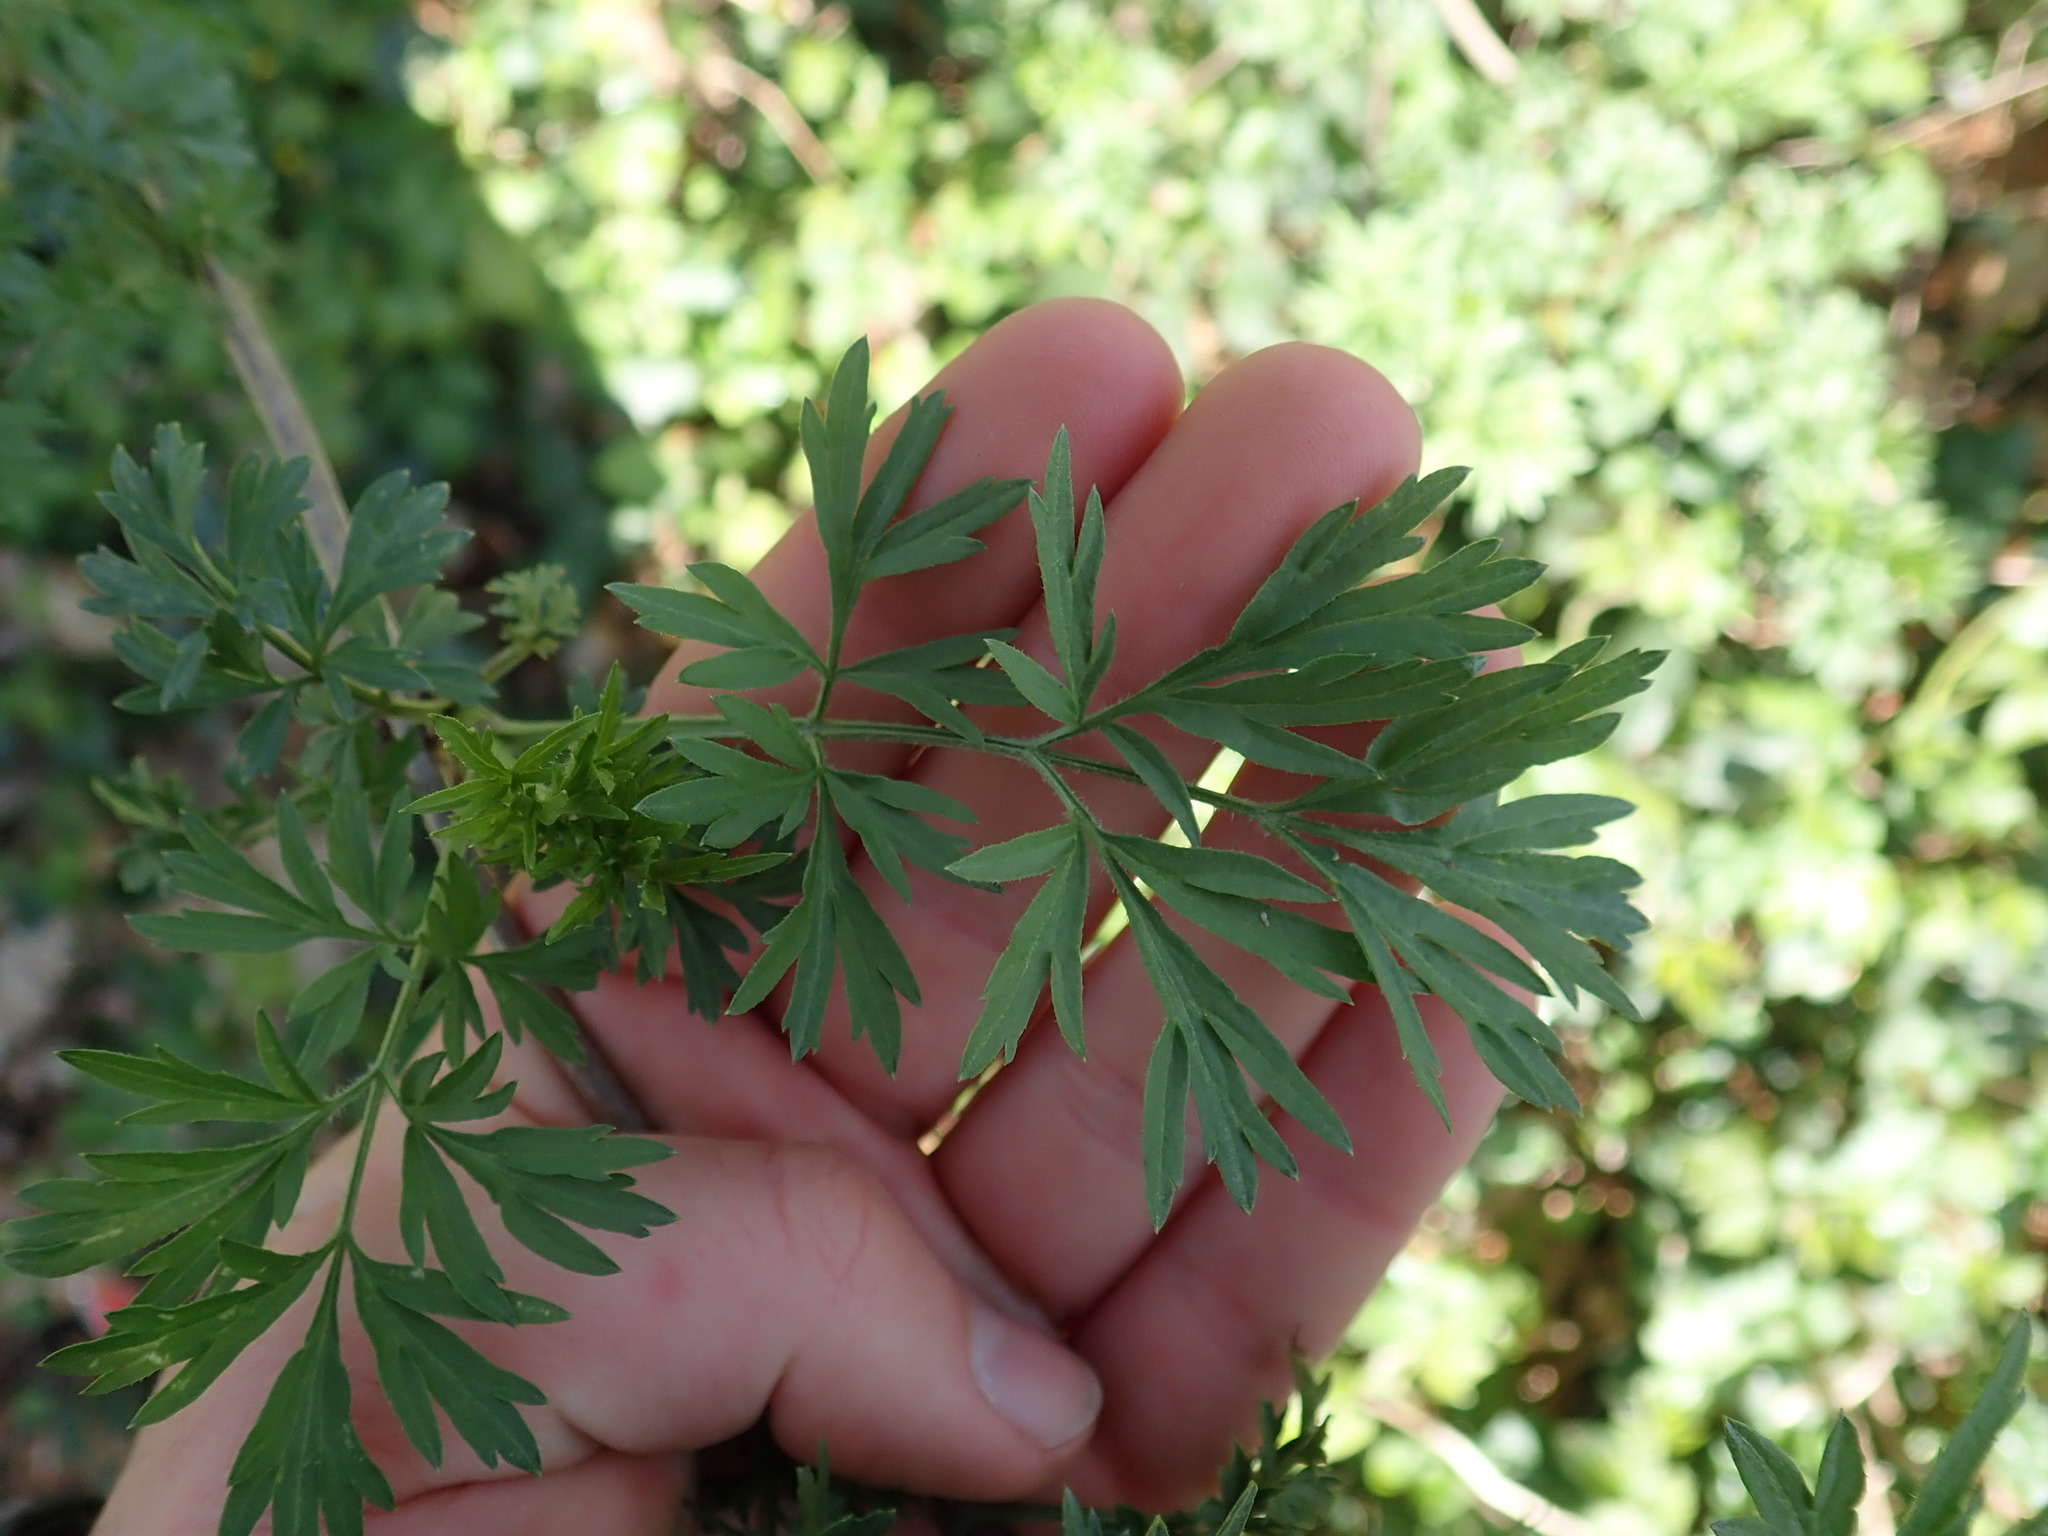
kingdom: Plantae
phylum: Tracheophyta
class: Magnoliopsida
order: Dipsacales
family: Viburnaceae
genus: Sambucus
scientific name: Sambucus nigra
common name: Elder
